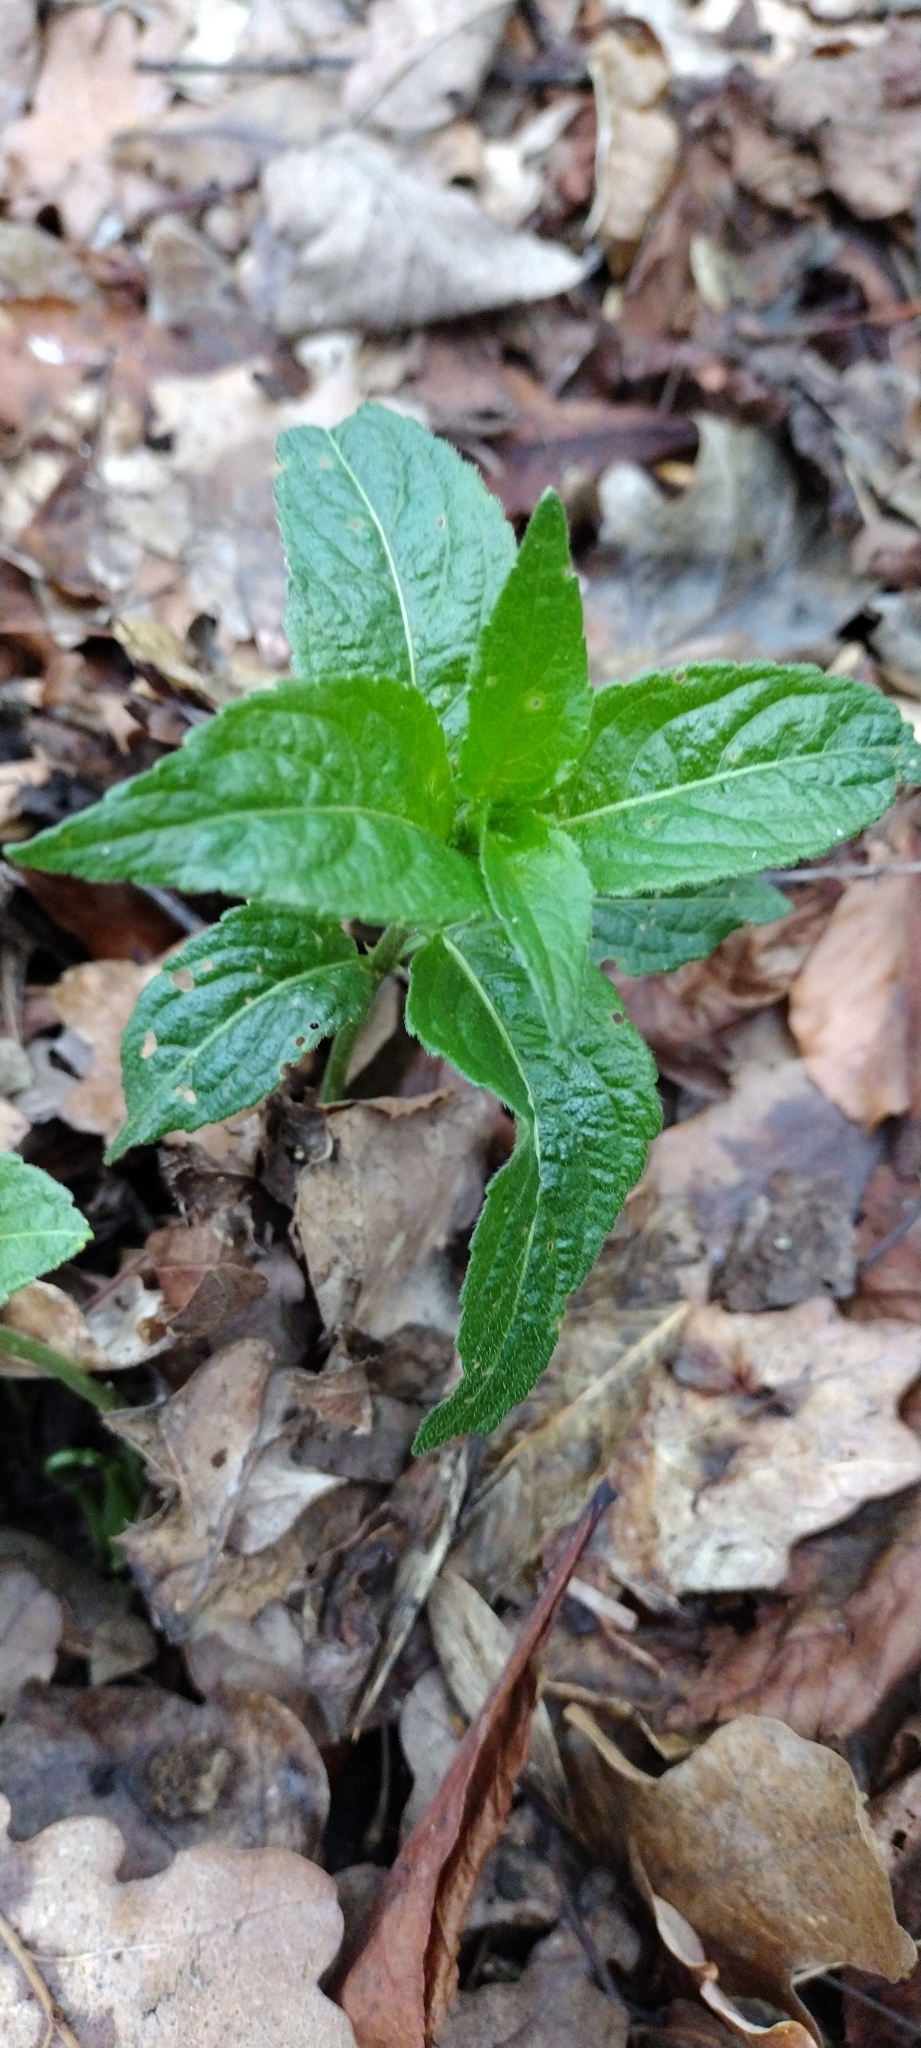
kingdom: Plantae
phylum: Tracheophyta
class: Magnoliopsida
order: Malpighiales
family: Euphorbiaceae
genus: Mercurialis
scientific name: Mercurialis perennis
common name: Dog mercury
